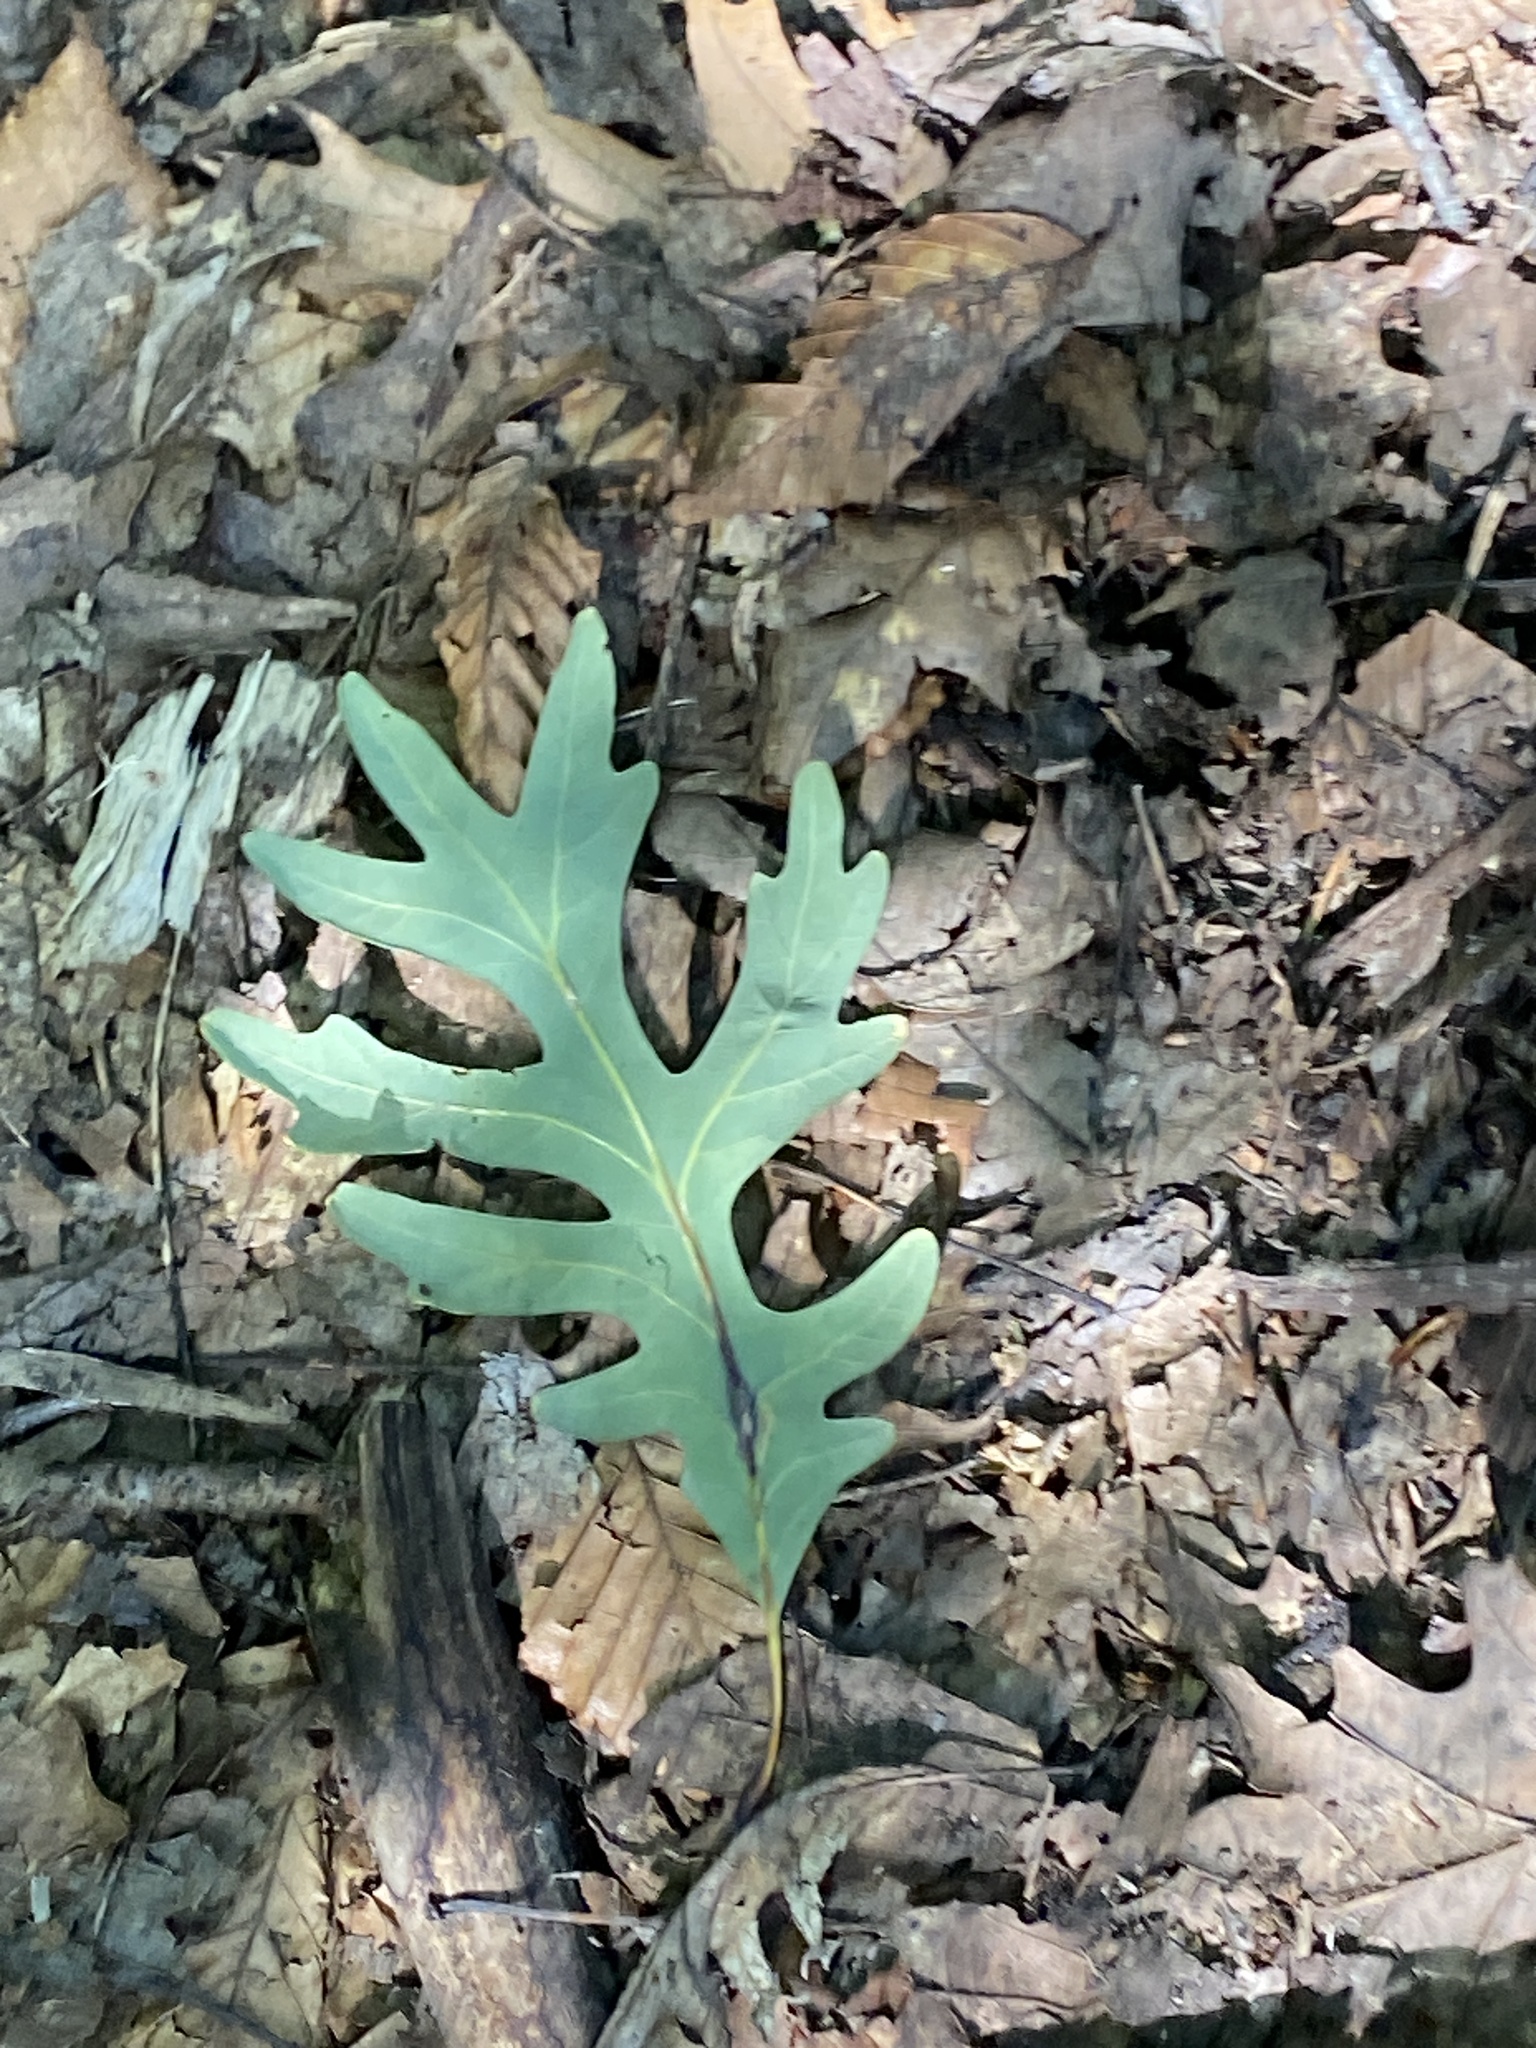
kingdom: Plantae
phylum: Tracheophyta
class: Magnoliopsida
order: Fagales
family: Fagaceae
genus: Quercus
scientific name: Quercus alba
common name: White oak
